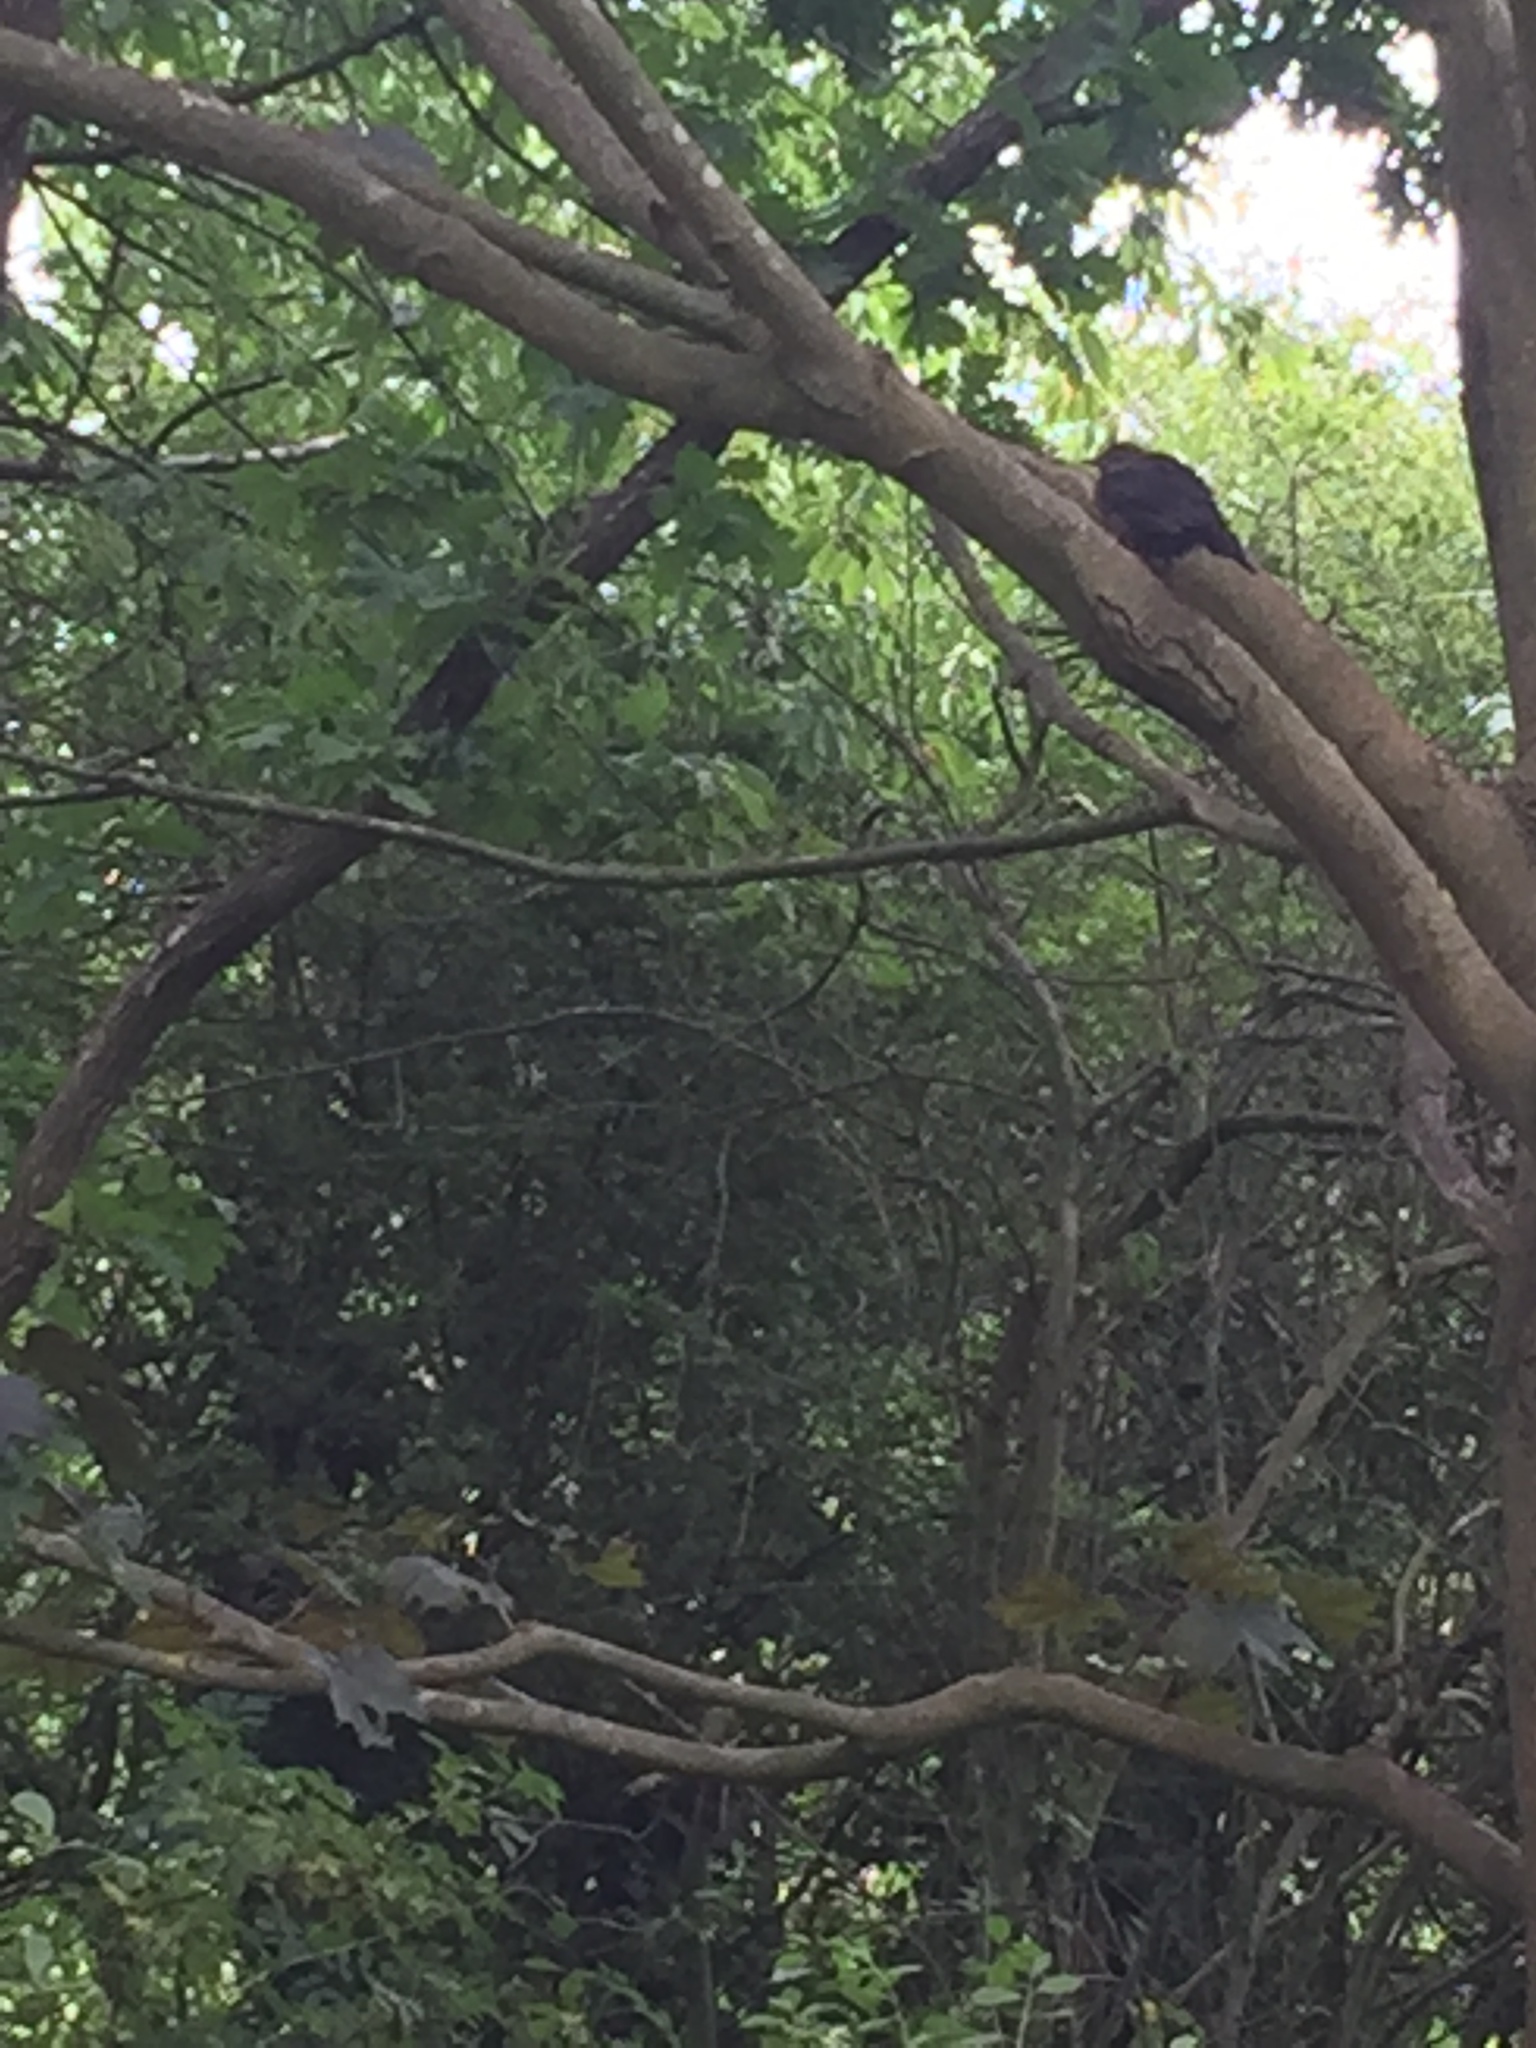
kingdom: Animalia
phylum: Chordata
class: Aves
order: Passeriformes
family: Turdidae
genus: Turdus
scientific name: Turdus merula
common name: Common blackbird
